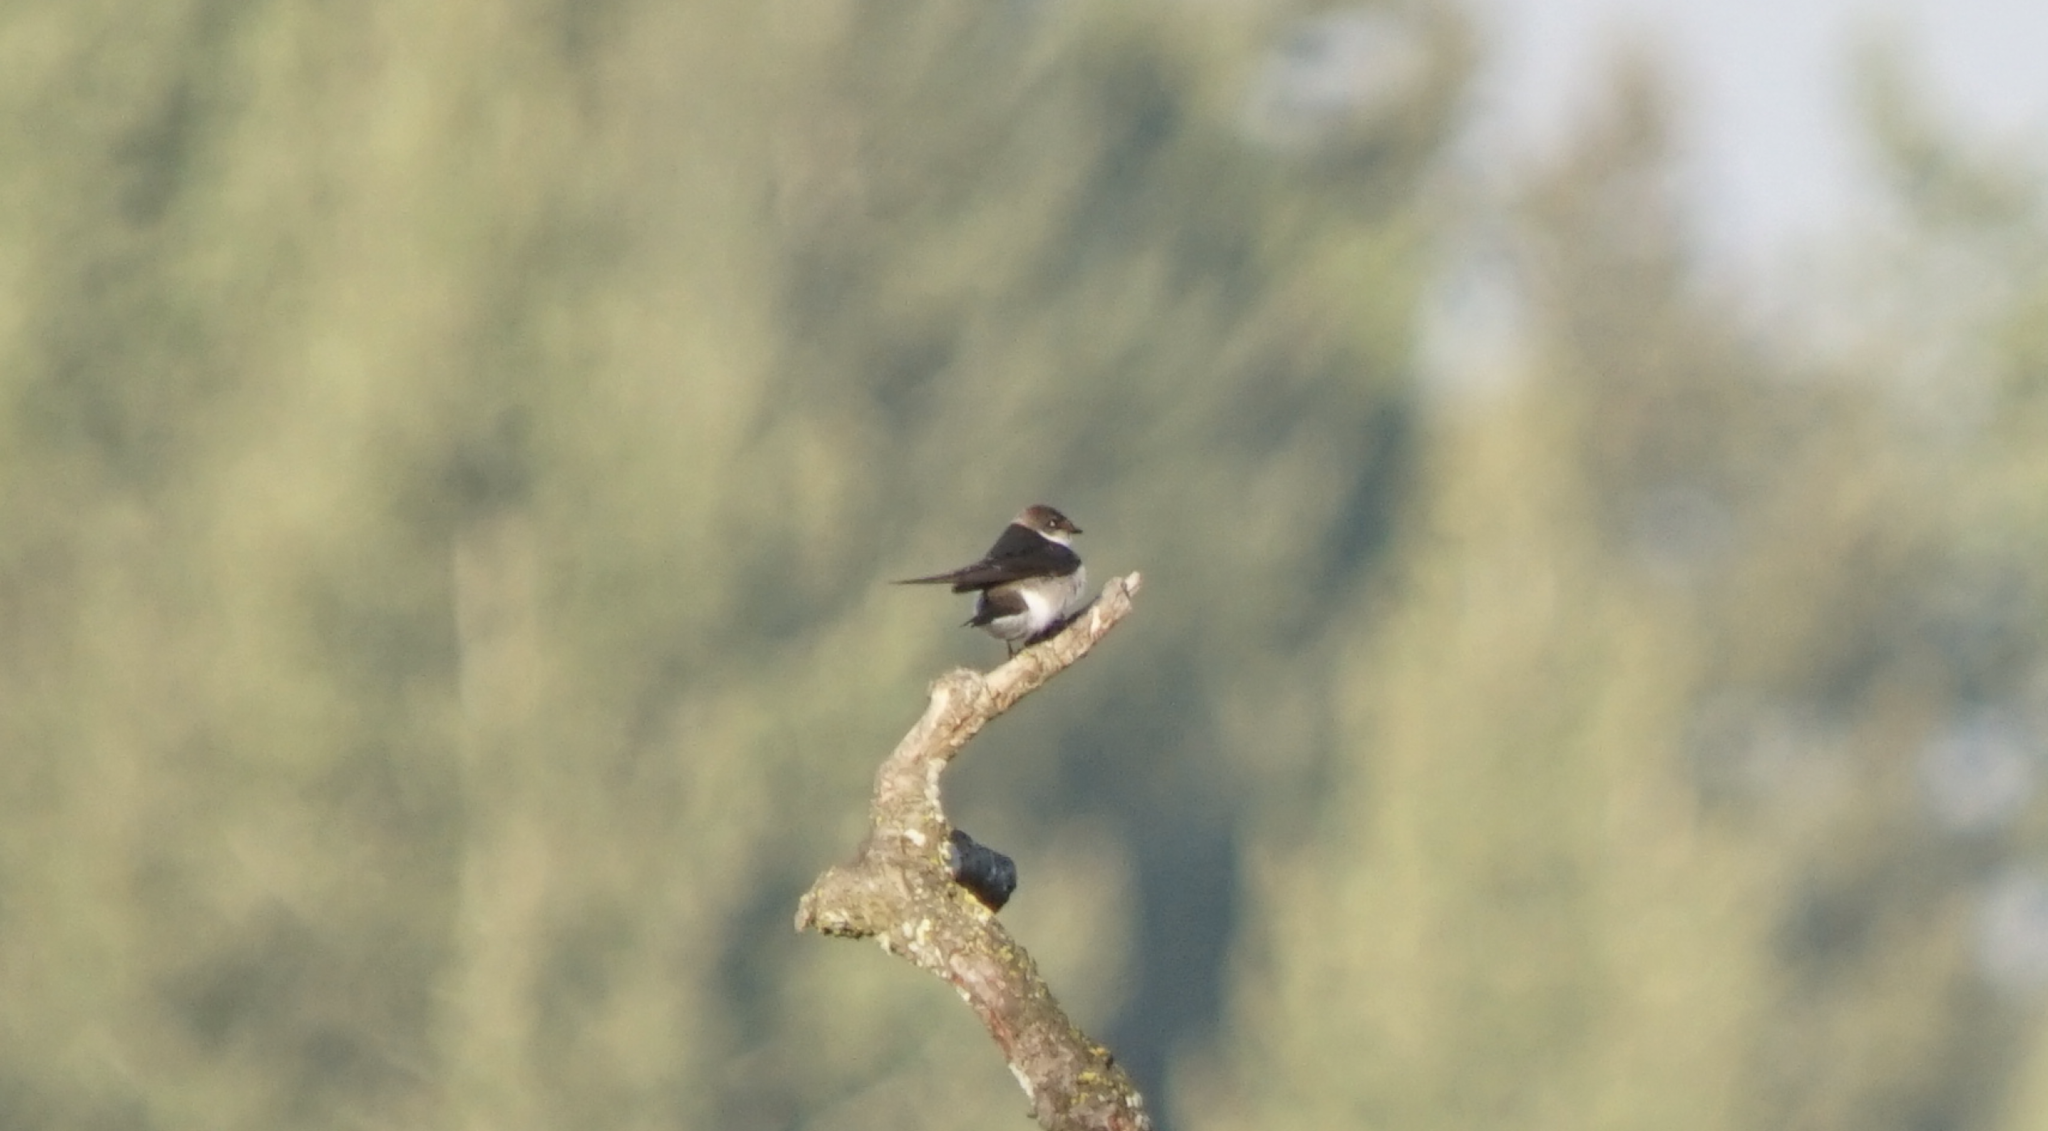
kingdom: Animalia
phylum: Chordata
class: Aves
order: Passeriformes
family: Hirundinidae
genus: Stelgidopteryx
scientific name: Stelgidopteryx serripennis
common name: Northern rough-winged swallow
